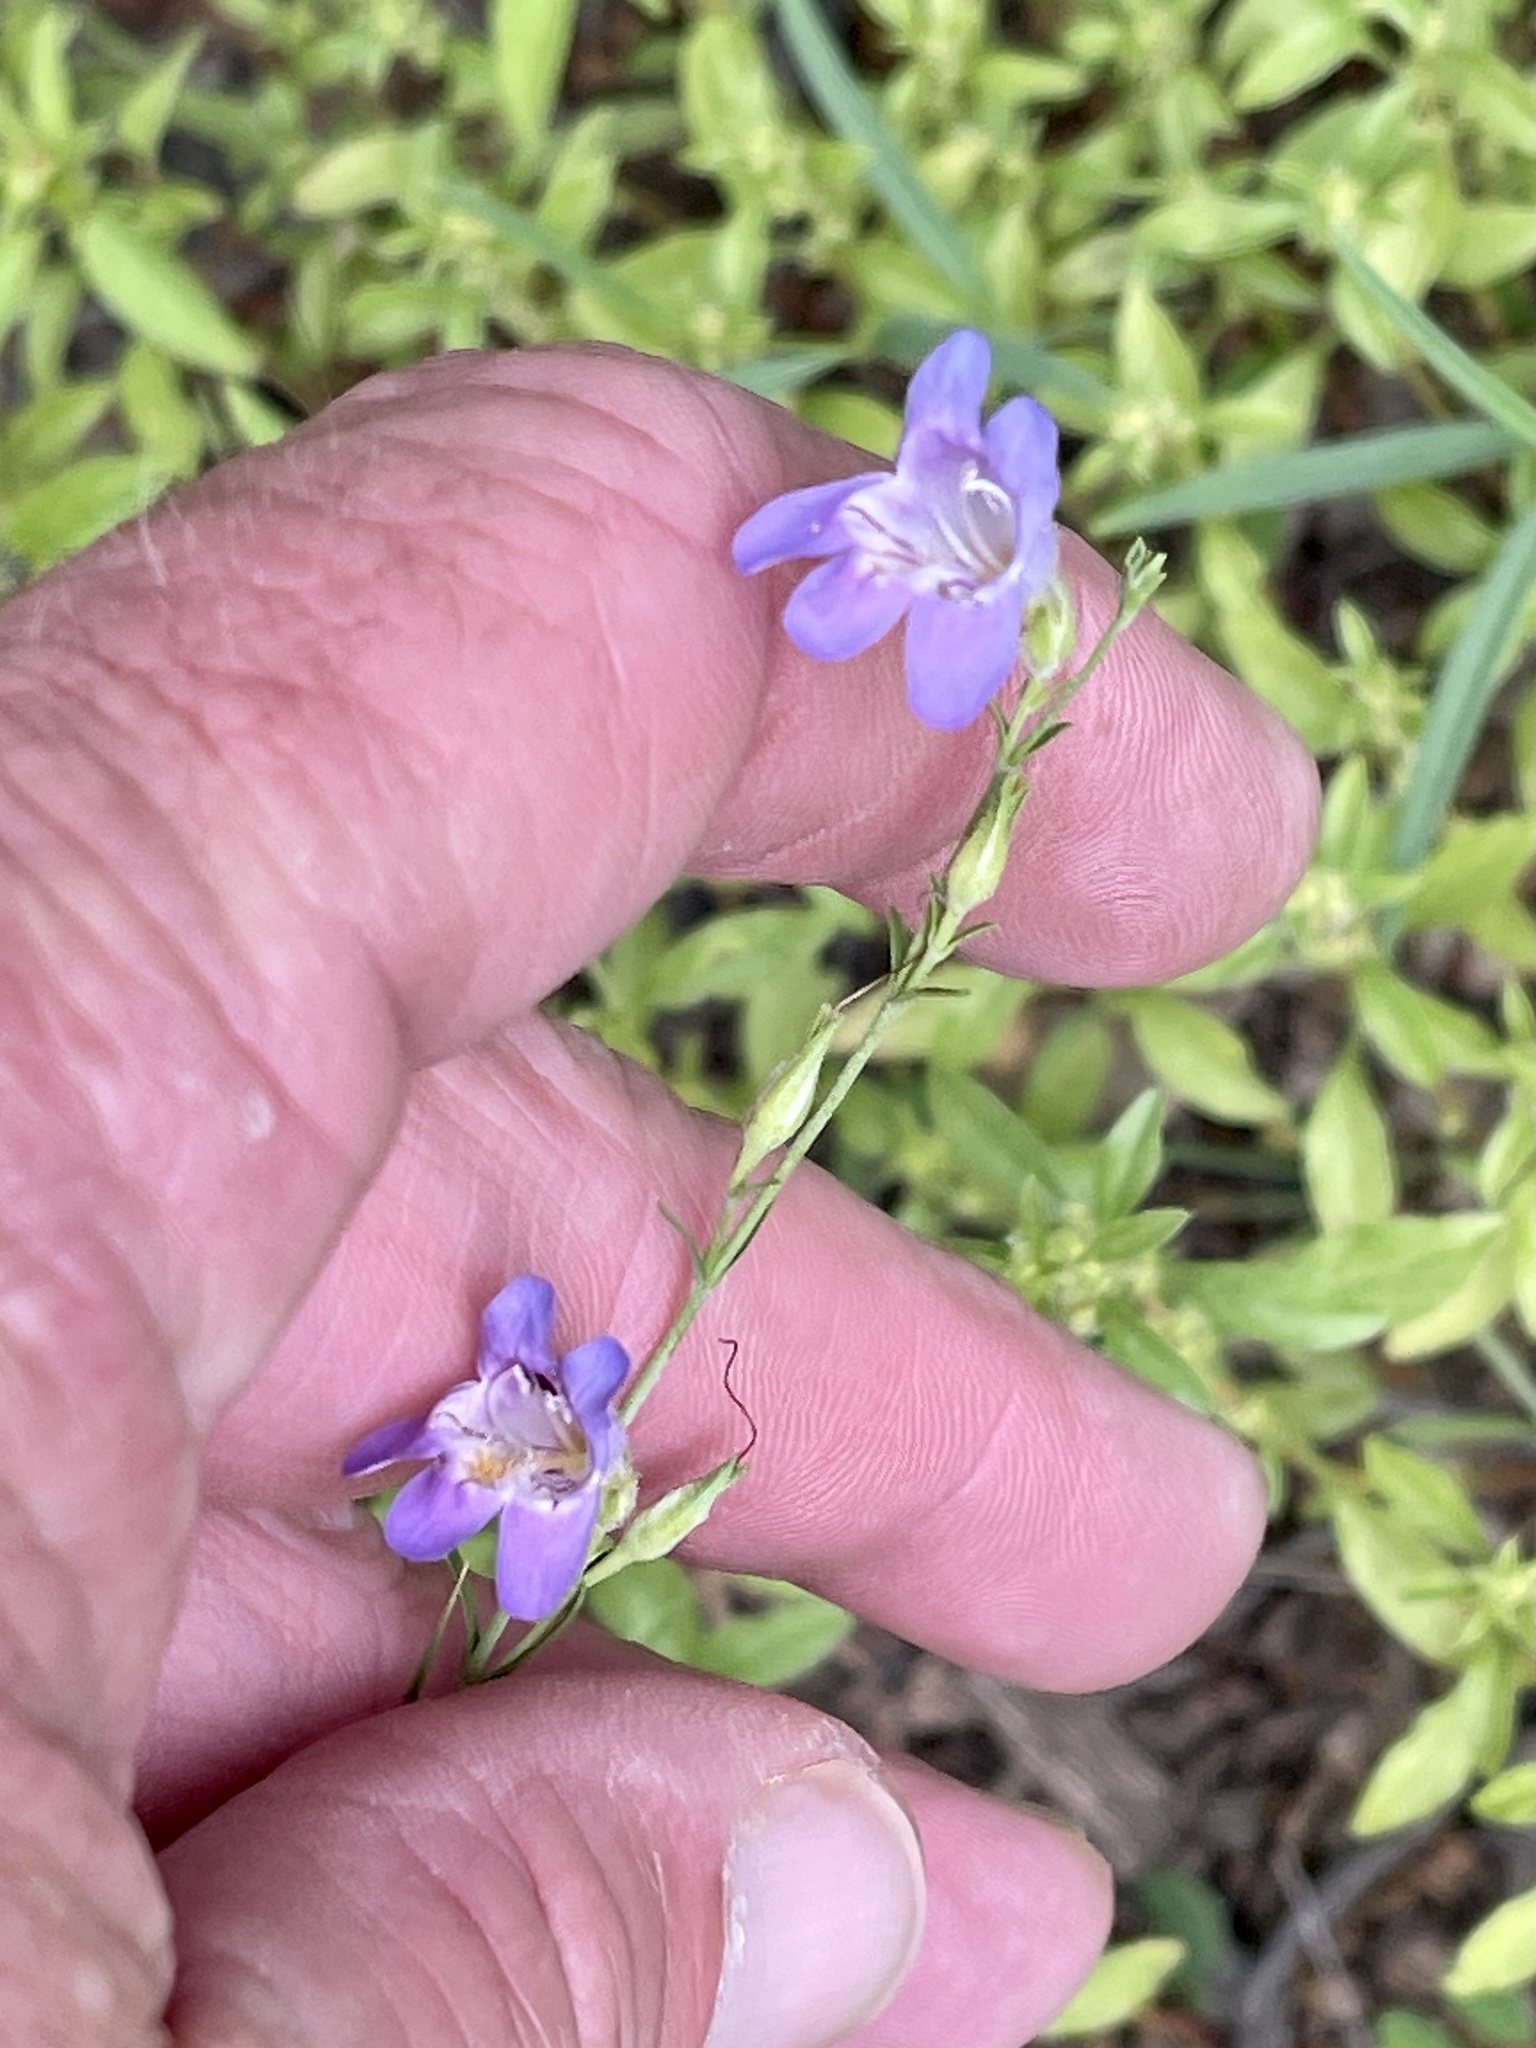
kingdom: Plantae
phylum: Tracheophyta
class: Magnoliopsida
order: Lamiales
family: Plantaginaceae
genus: Penstemon
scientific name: Penstemon linarioides
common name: Siler's penstemon
